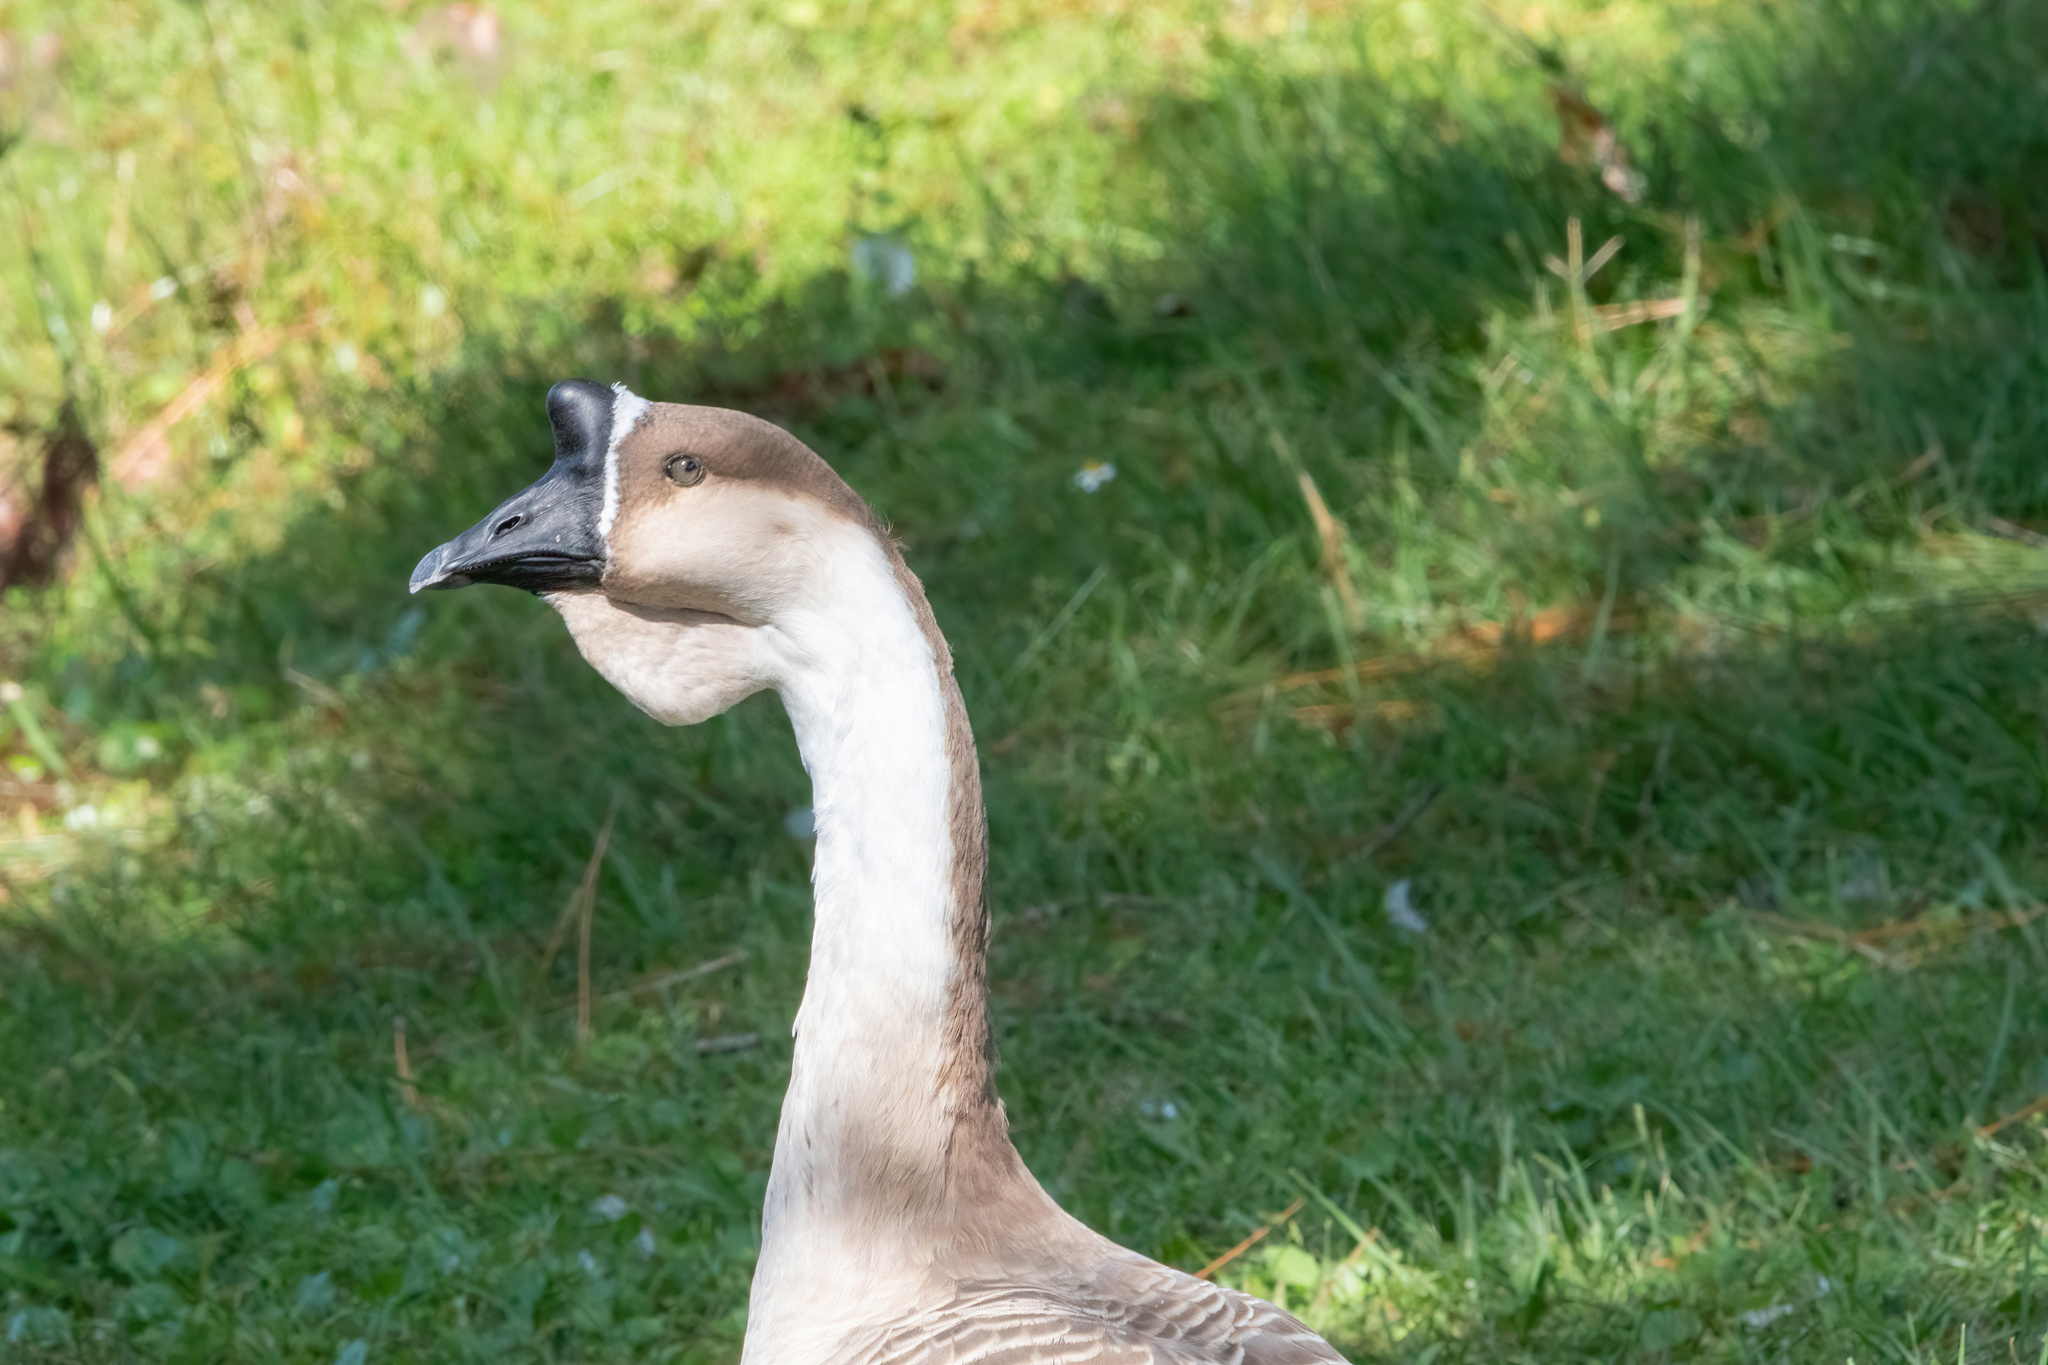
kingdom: Animalia
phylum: Chordata
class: Aves
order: Anseriformes
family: Anatidae
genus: Anser
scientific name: Anser cygnoides
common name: Swan goose
